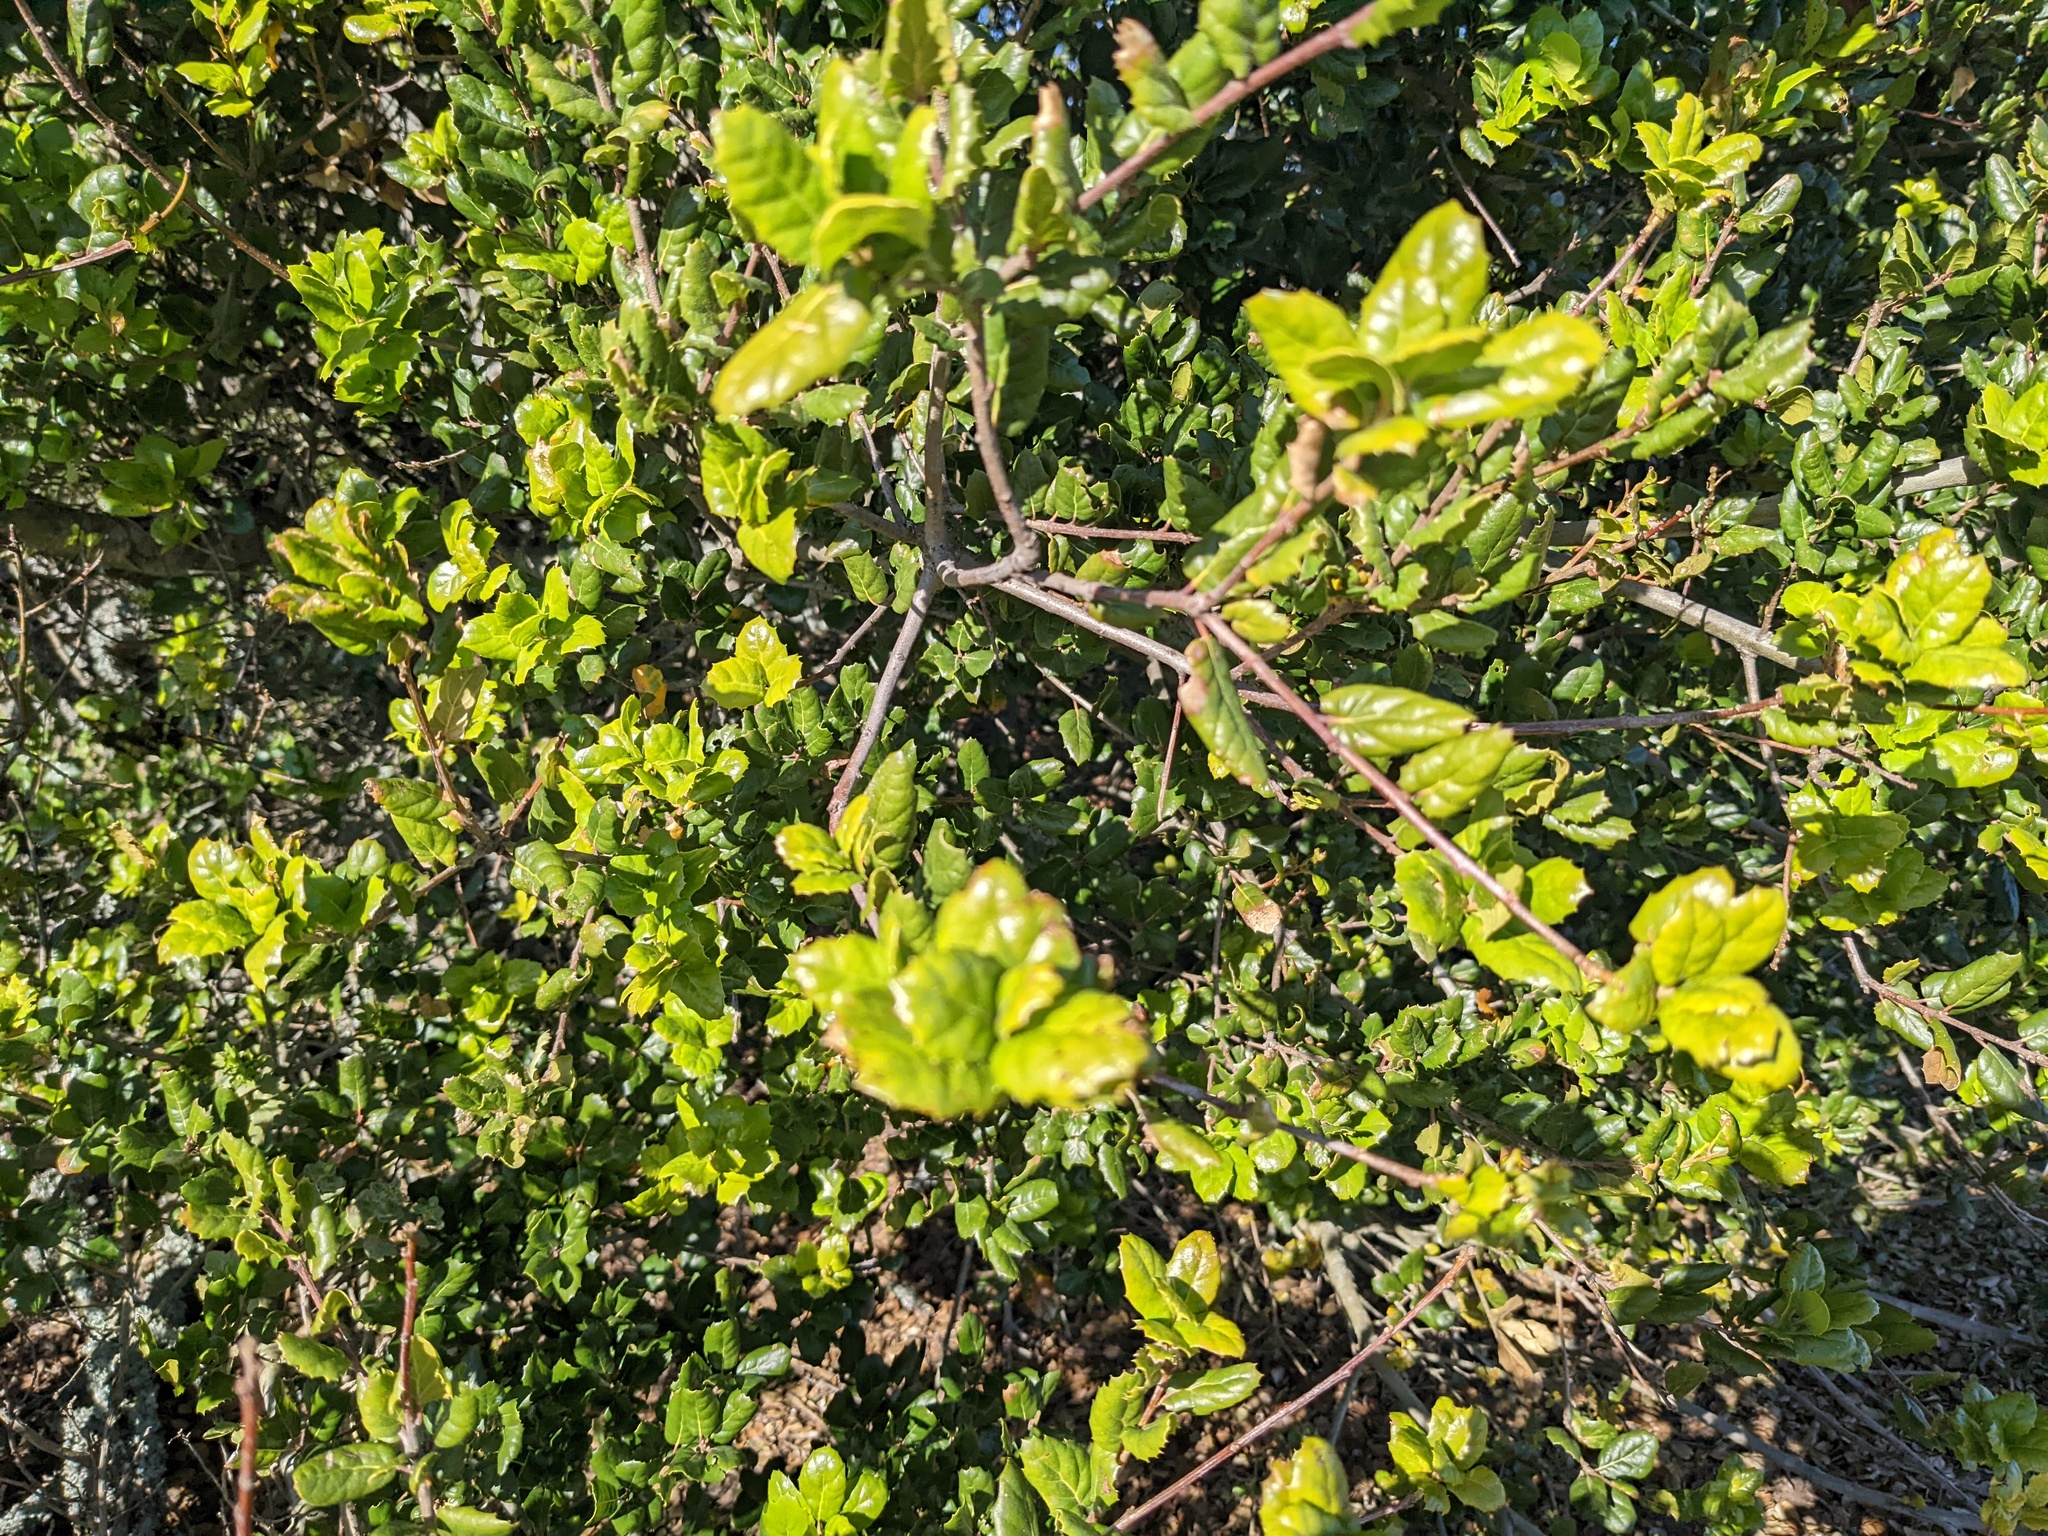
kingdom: Plantae
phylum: Tracheophyta
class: Magnoliopsida
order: Fagales
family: Fagaceae
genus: Quercus
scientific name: Quercus agrifolia
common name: California live oak
